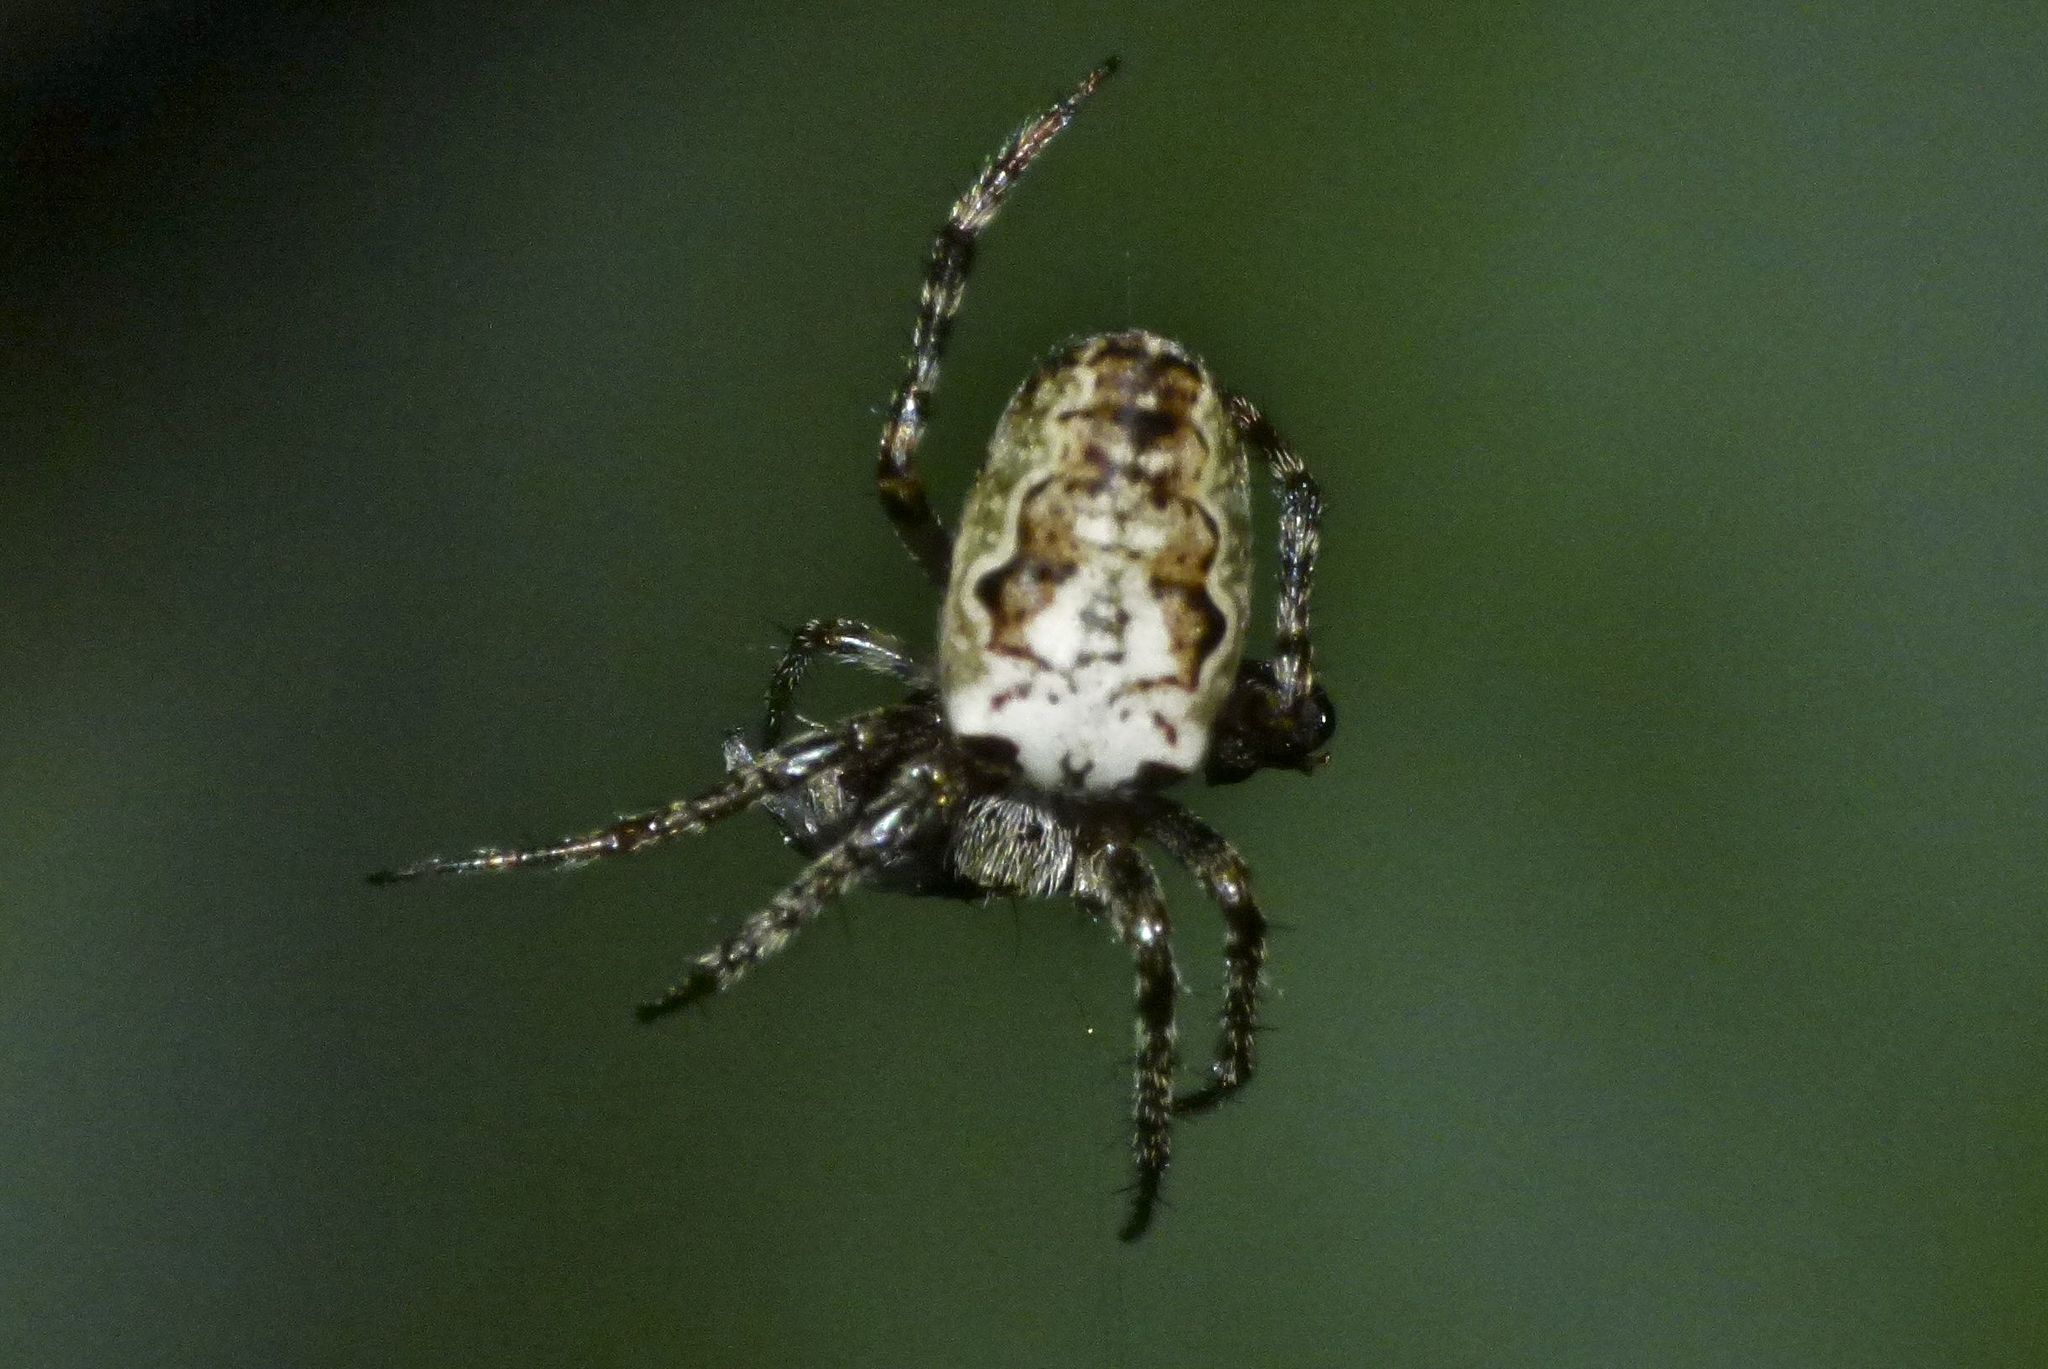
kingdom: Animalia
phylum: Arthropoda
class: Arachnida
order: Araneae
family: Araneidae
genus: Plebs
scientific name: Plebs eburnus
